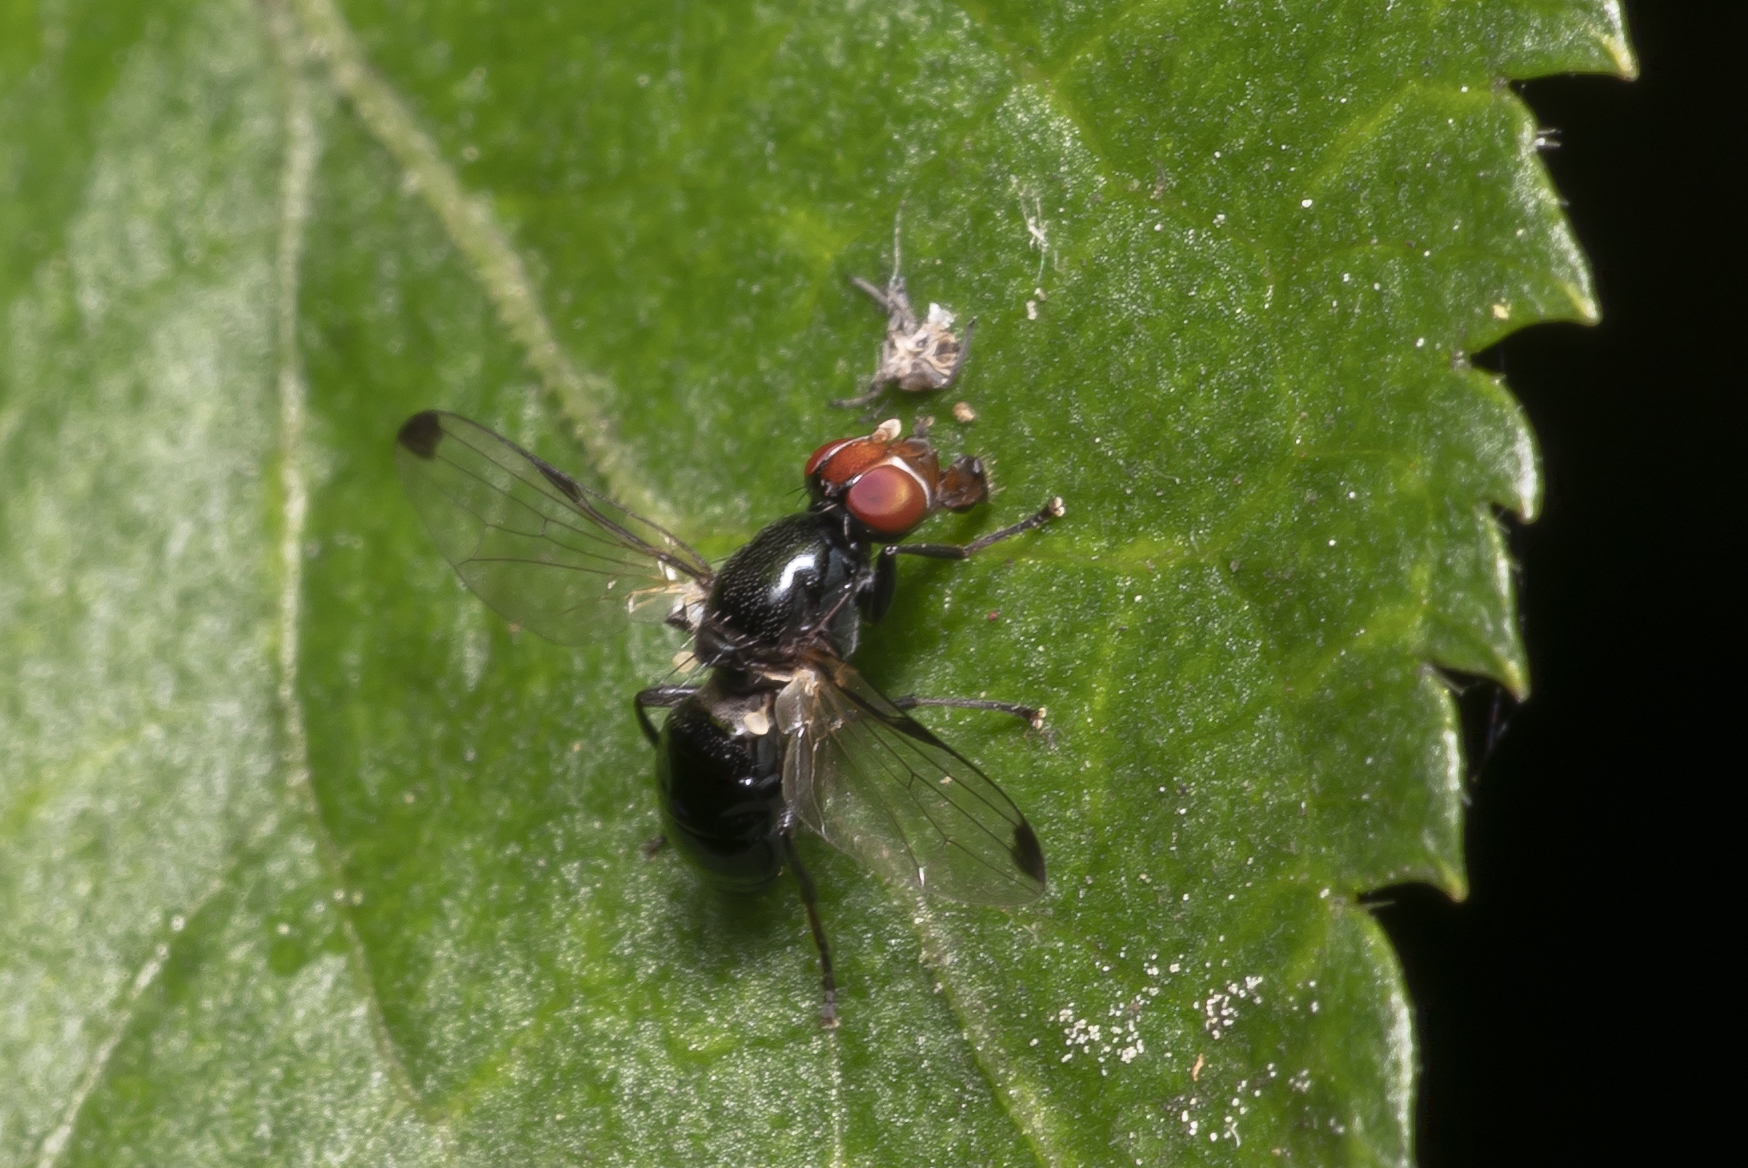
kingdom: Animalia
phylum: Arthropoda
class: Insecta
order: Diptera
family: Ulidiidae
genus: Seioptera
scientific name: Seioptera vibrans
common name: Dark-tipped wingwaver
